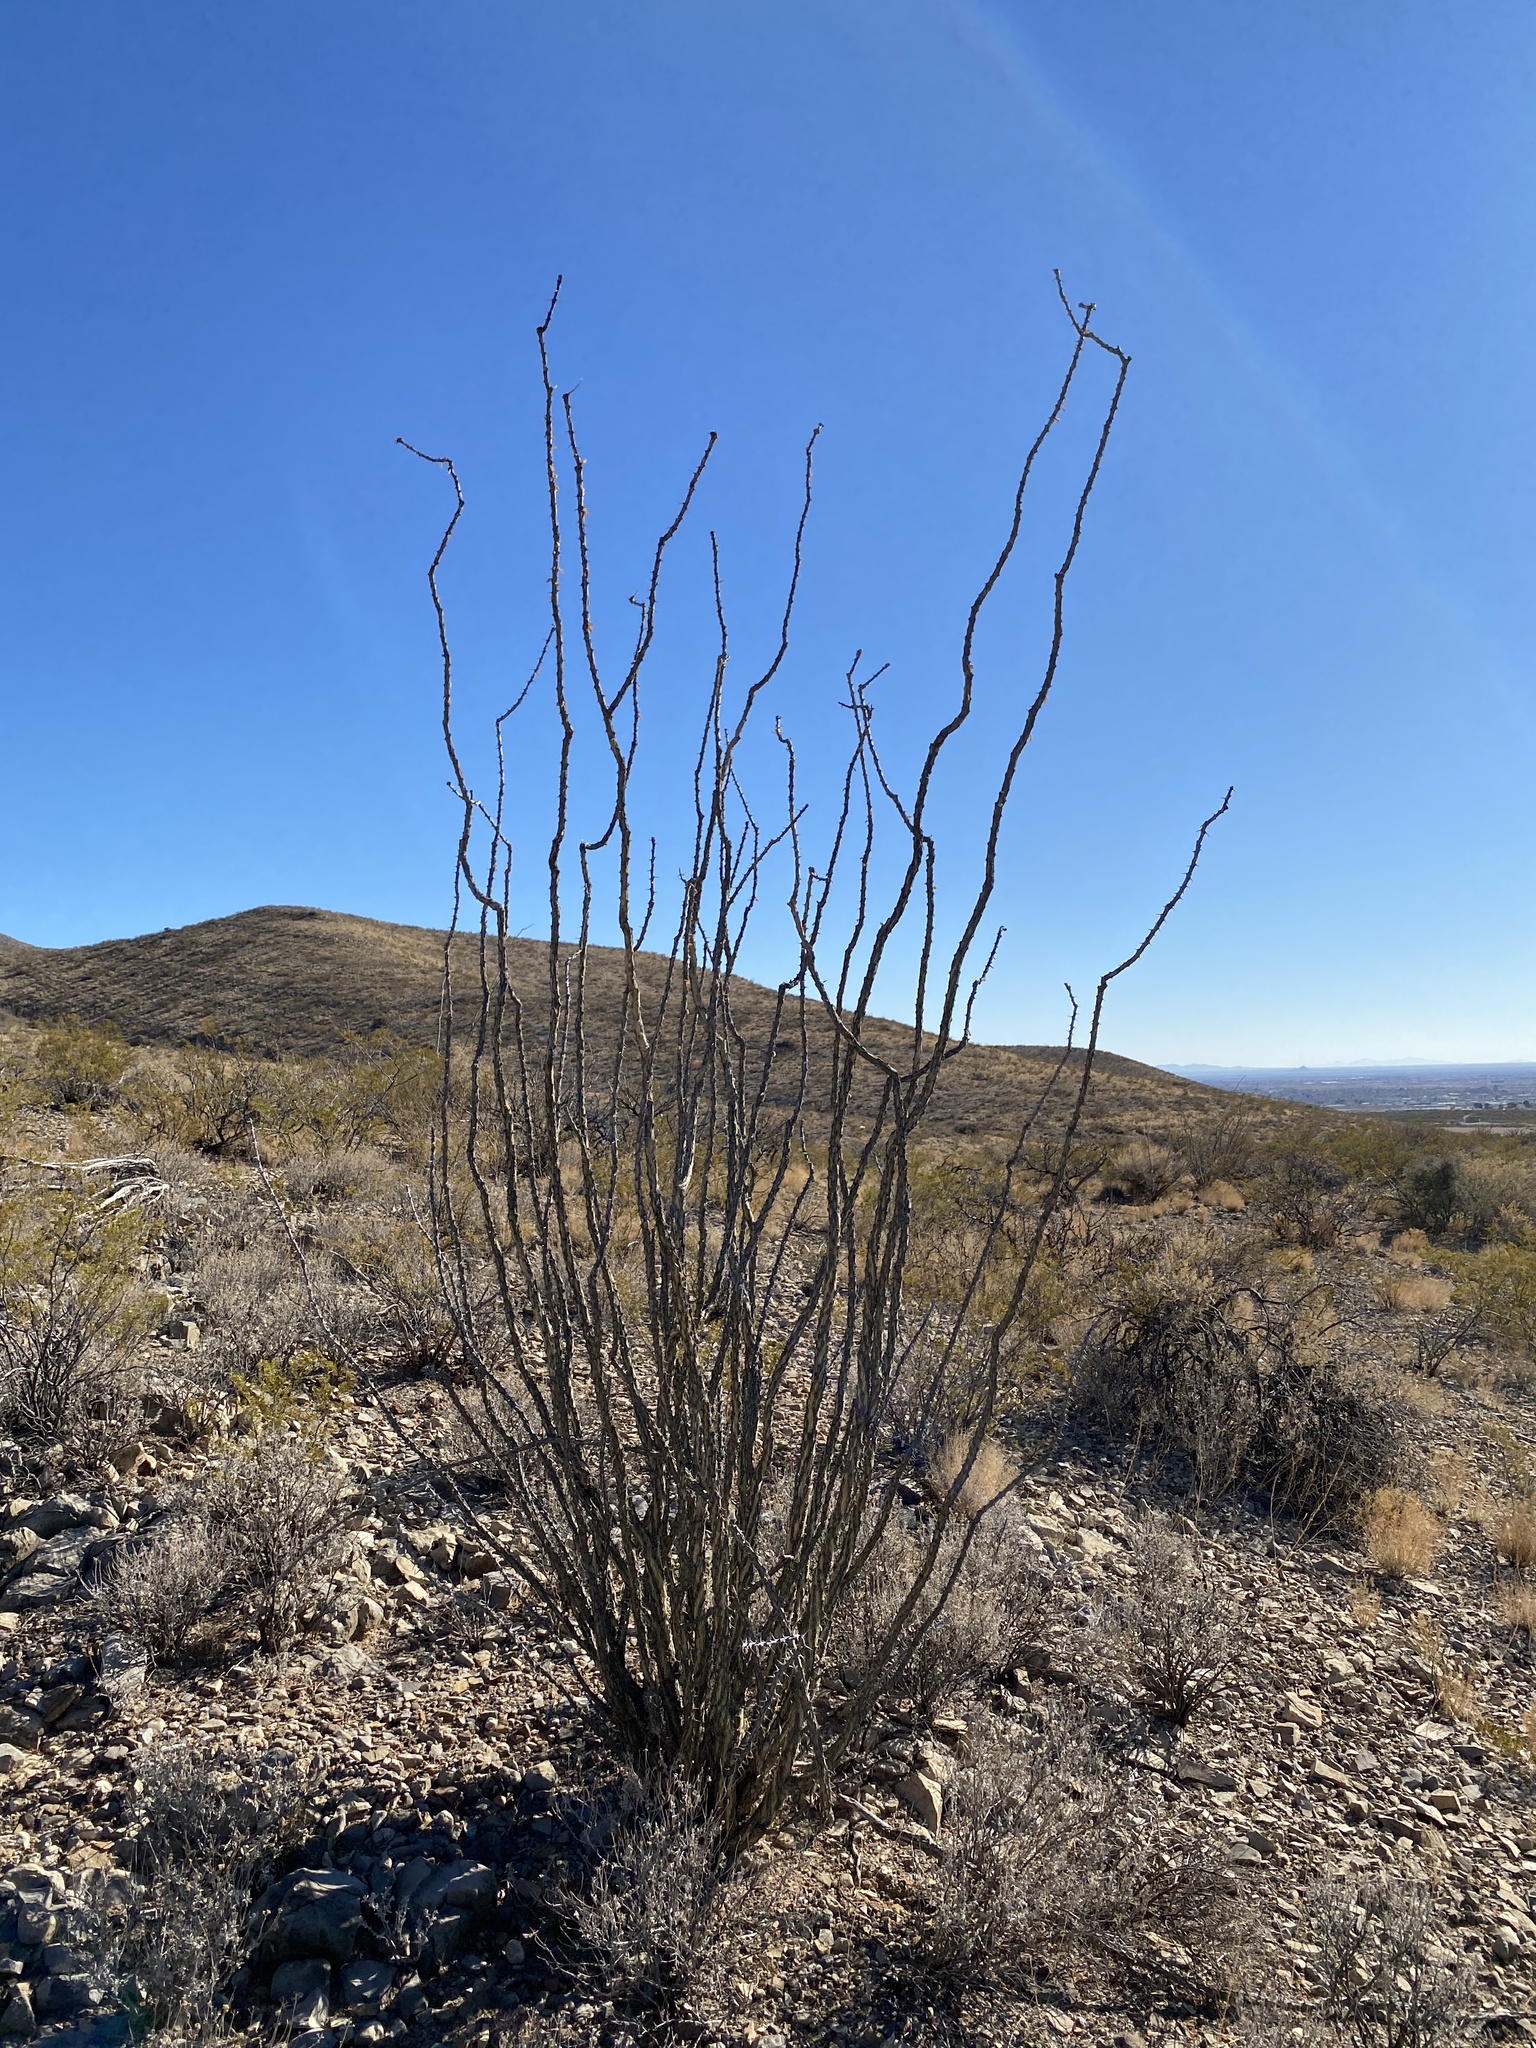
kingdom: Plantae
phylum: Tracheophyta
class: Magnoliopsida
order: Ericales
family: Fouquieriaceae
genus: Fouquieria
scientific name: Fouquieria splendens
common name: Vine-cactus
